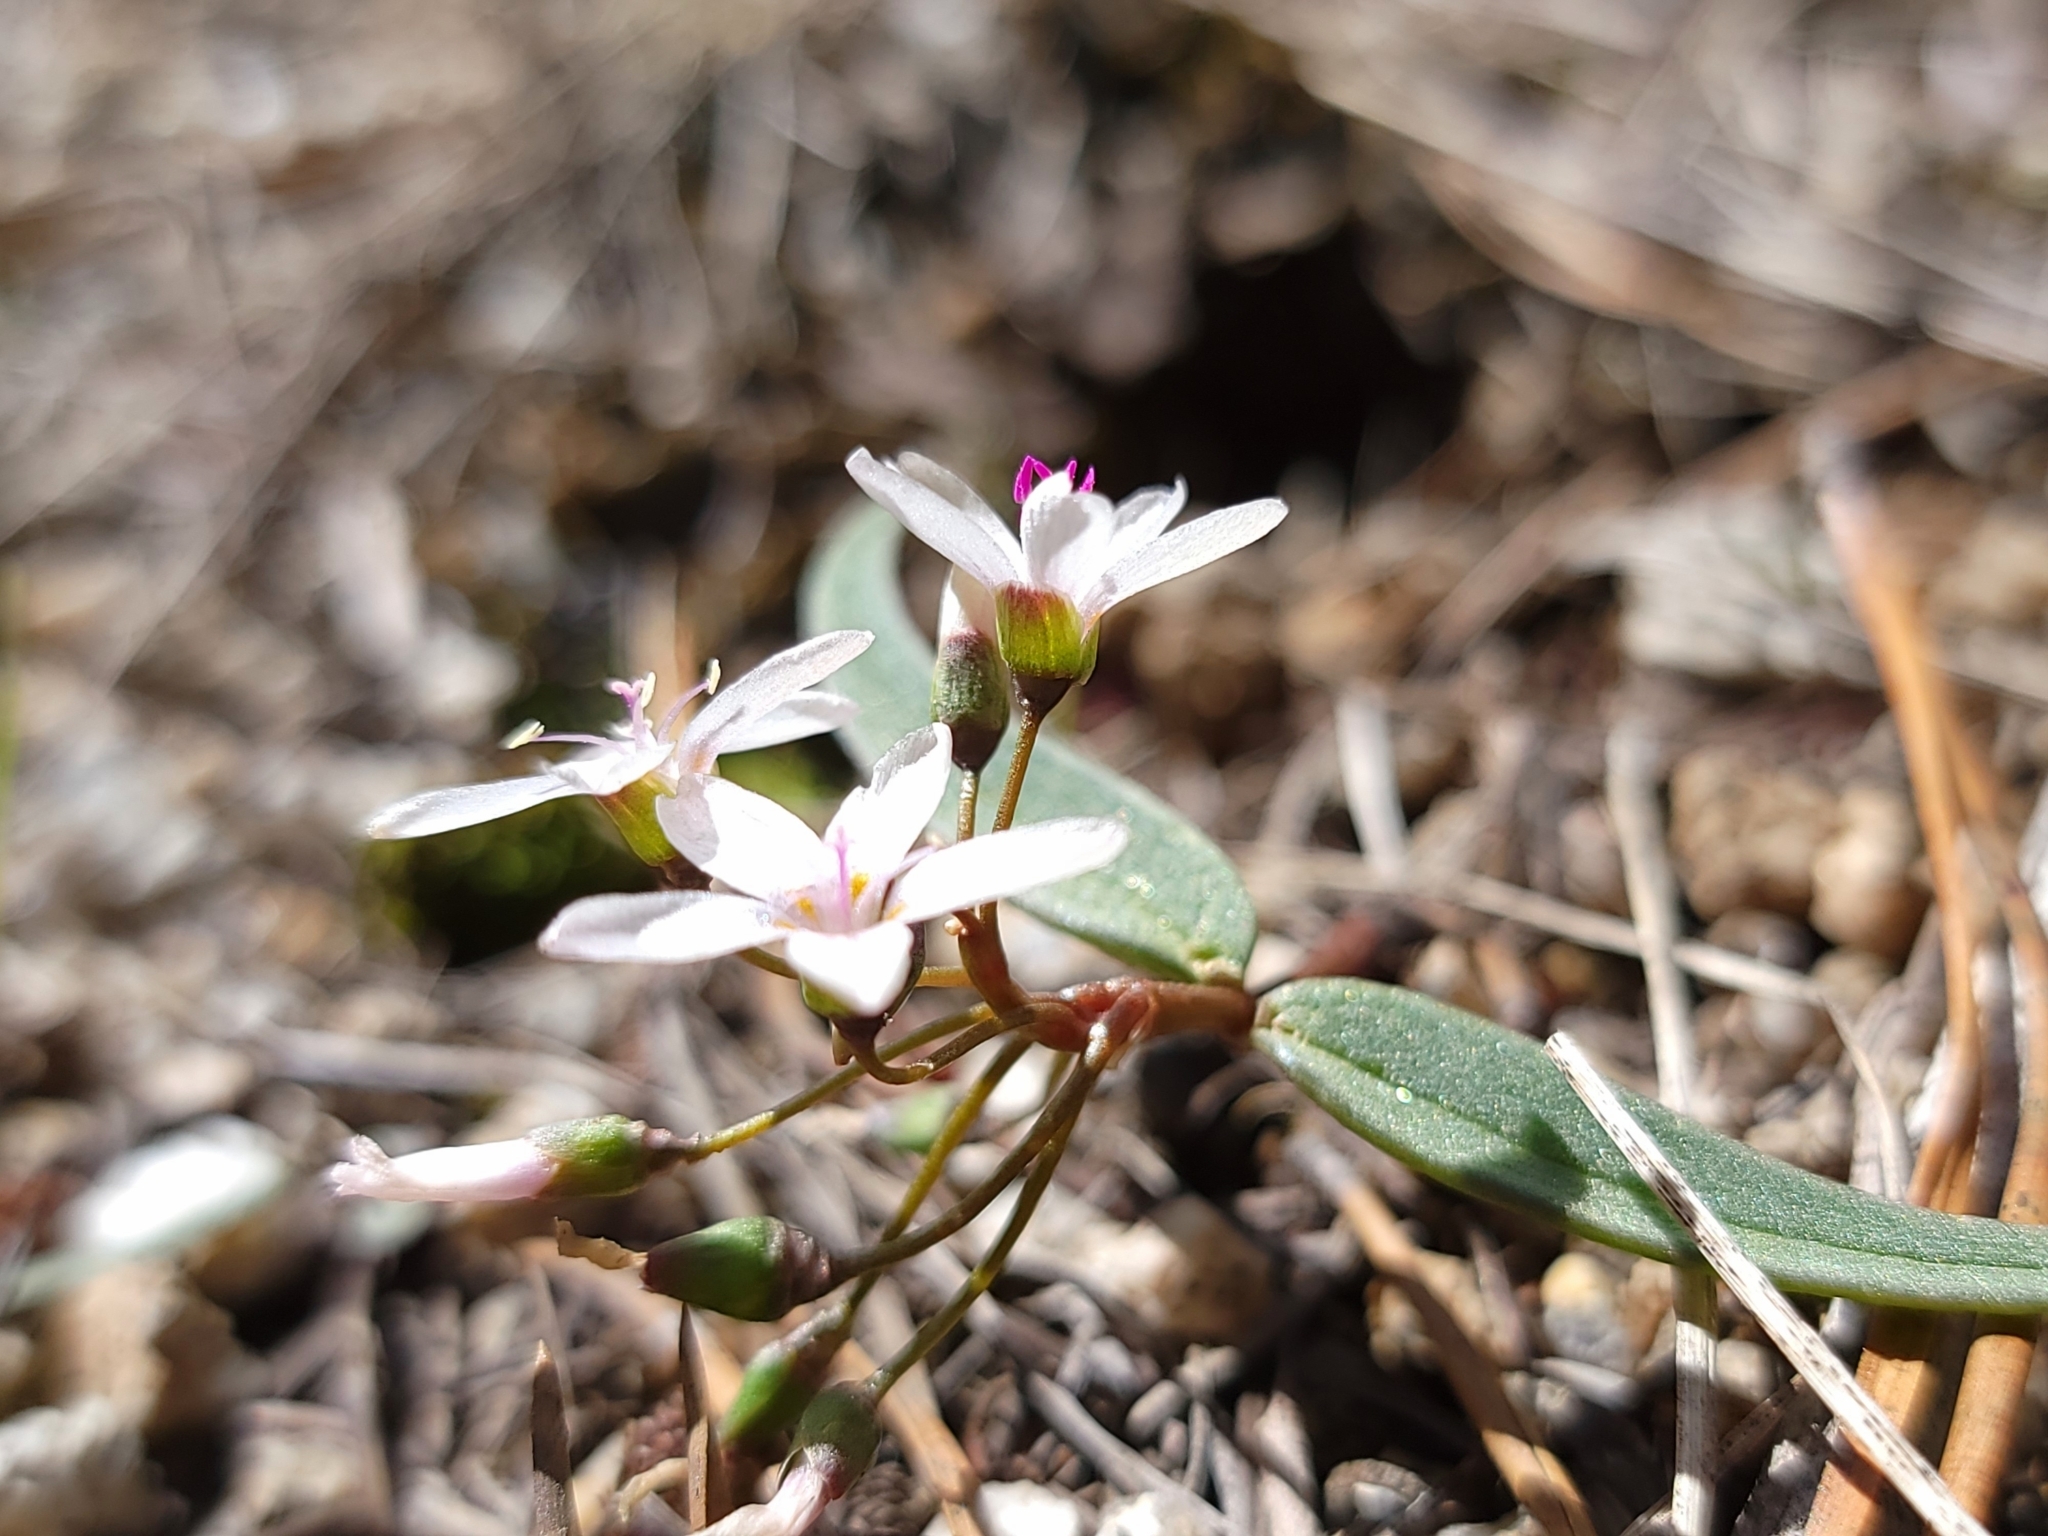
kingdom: Plantae
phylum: Tracheophyta
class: Magnoliopsida
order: Caryophyllales
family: Montiaceae
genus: Claytonia
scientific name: Claytonia lanceolata
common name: Western spring-beauty
